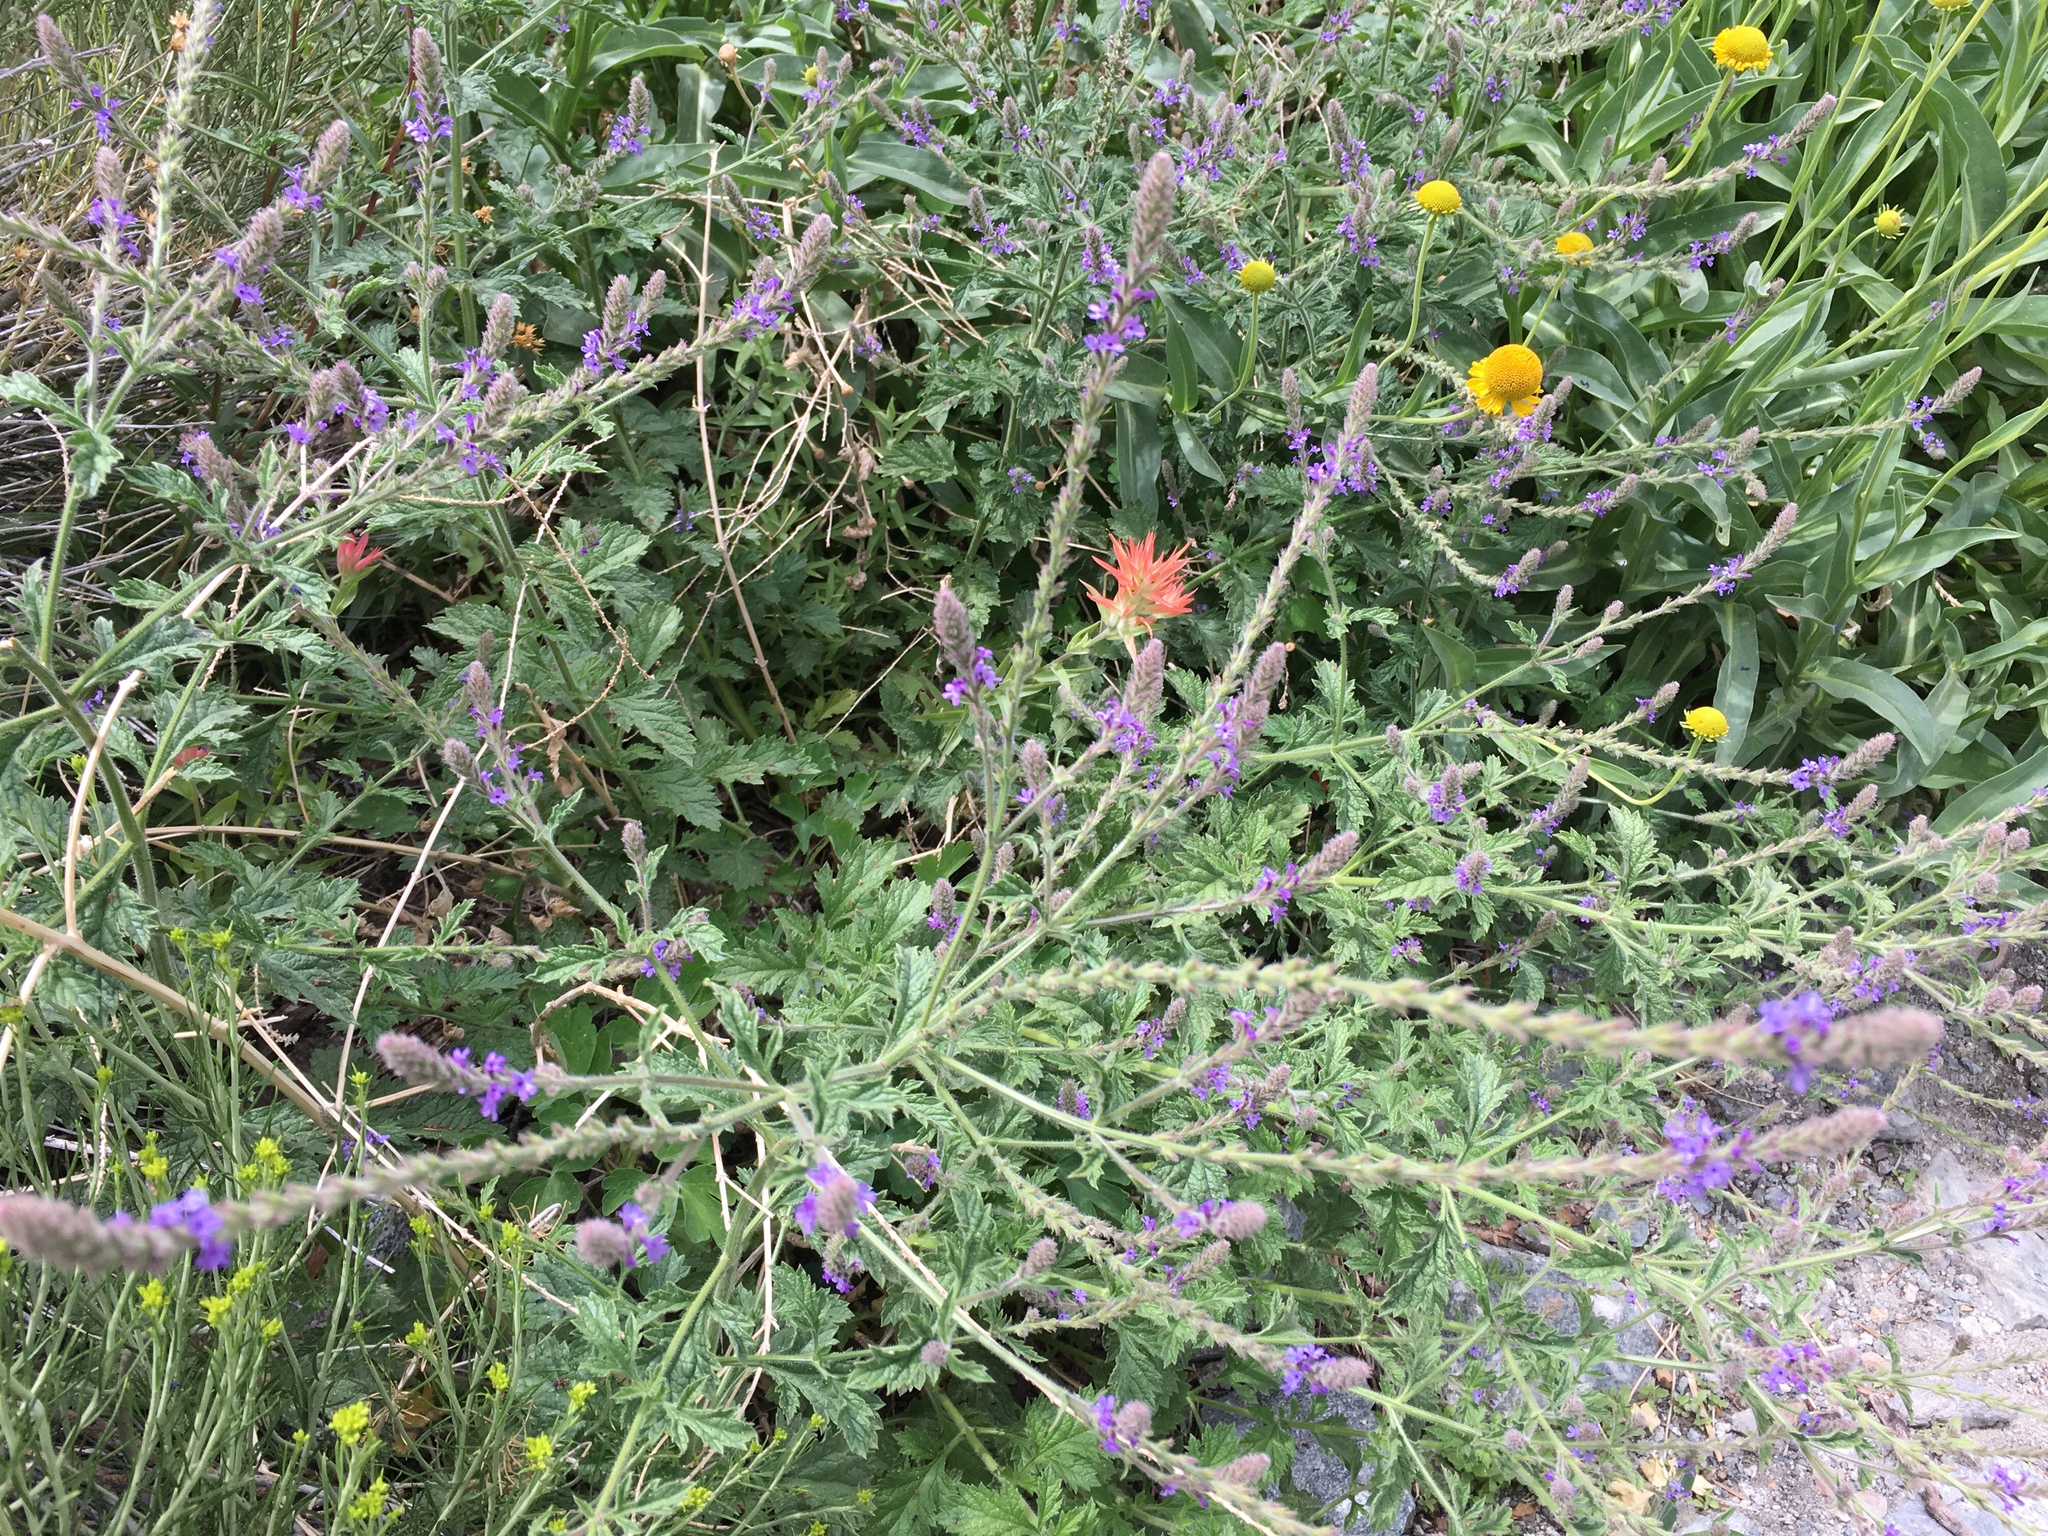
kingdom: Plantae
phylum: Tracheophyta
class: Magnoliopsida
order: Lamiales
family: Verbenaceae
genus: Verbena
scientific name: Verbena lasiostachys
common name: Vervain
